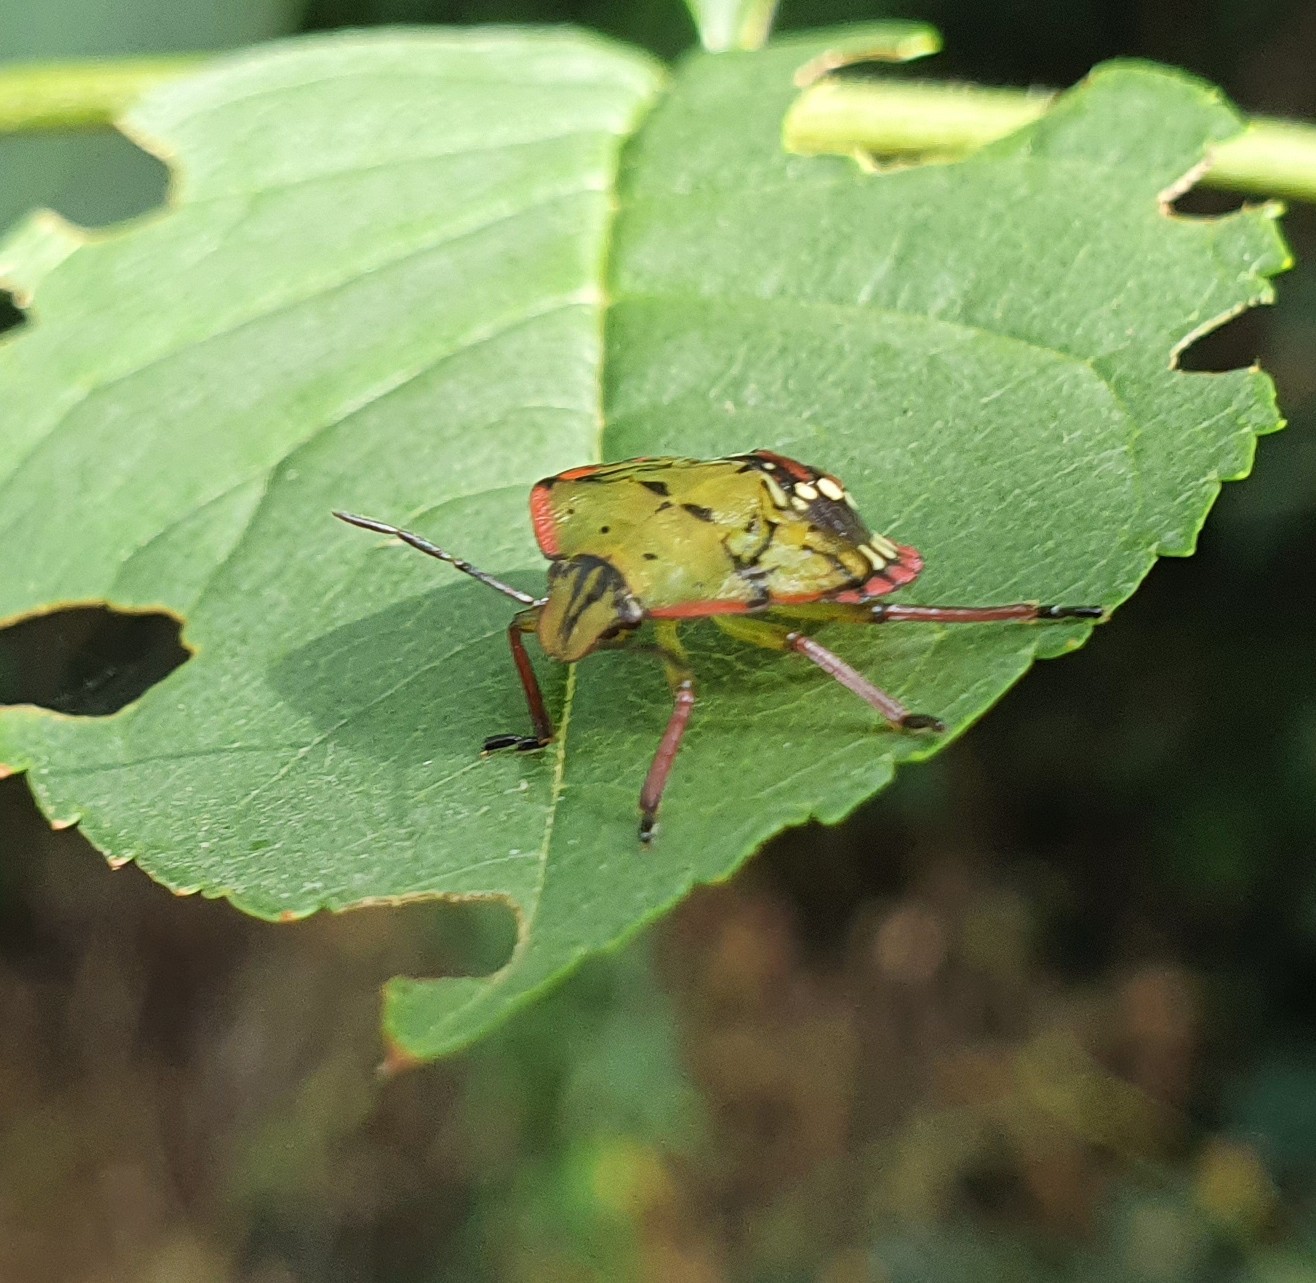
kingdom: Animalia
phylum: Arthropoda
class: Insecta
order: Hemiptera
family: Pentatomidae
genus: Nezara
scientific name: Nezara viridula
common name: Southern green stink bug
